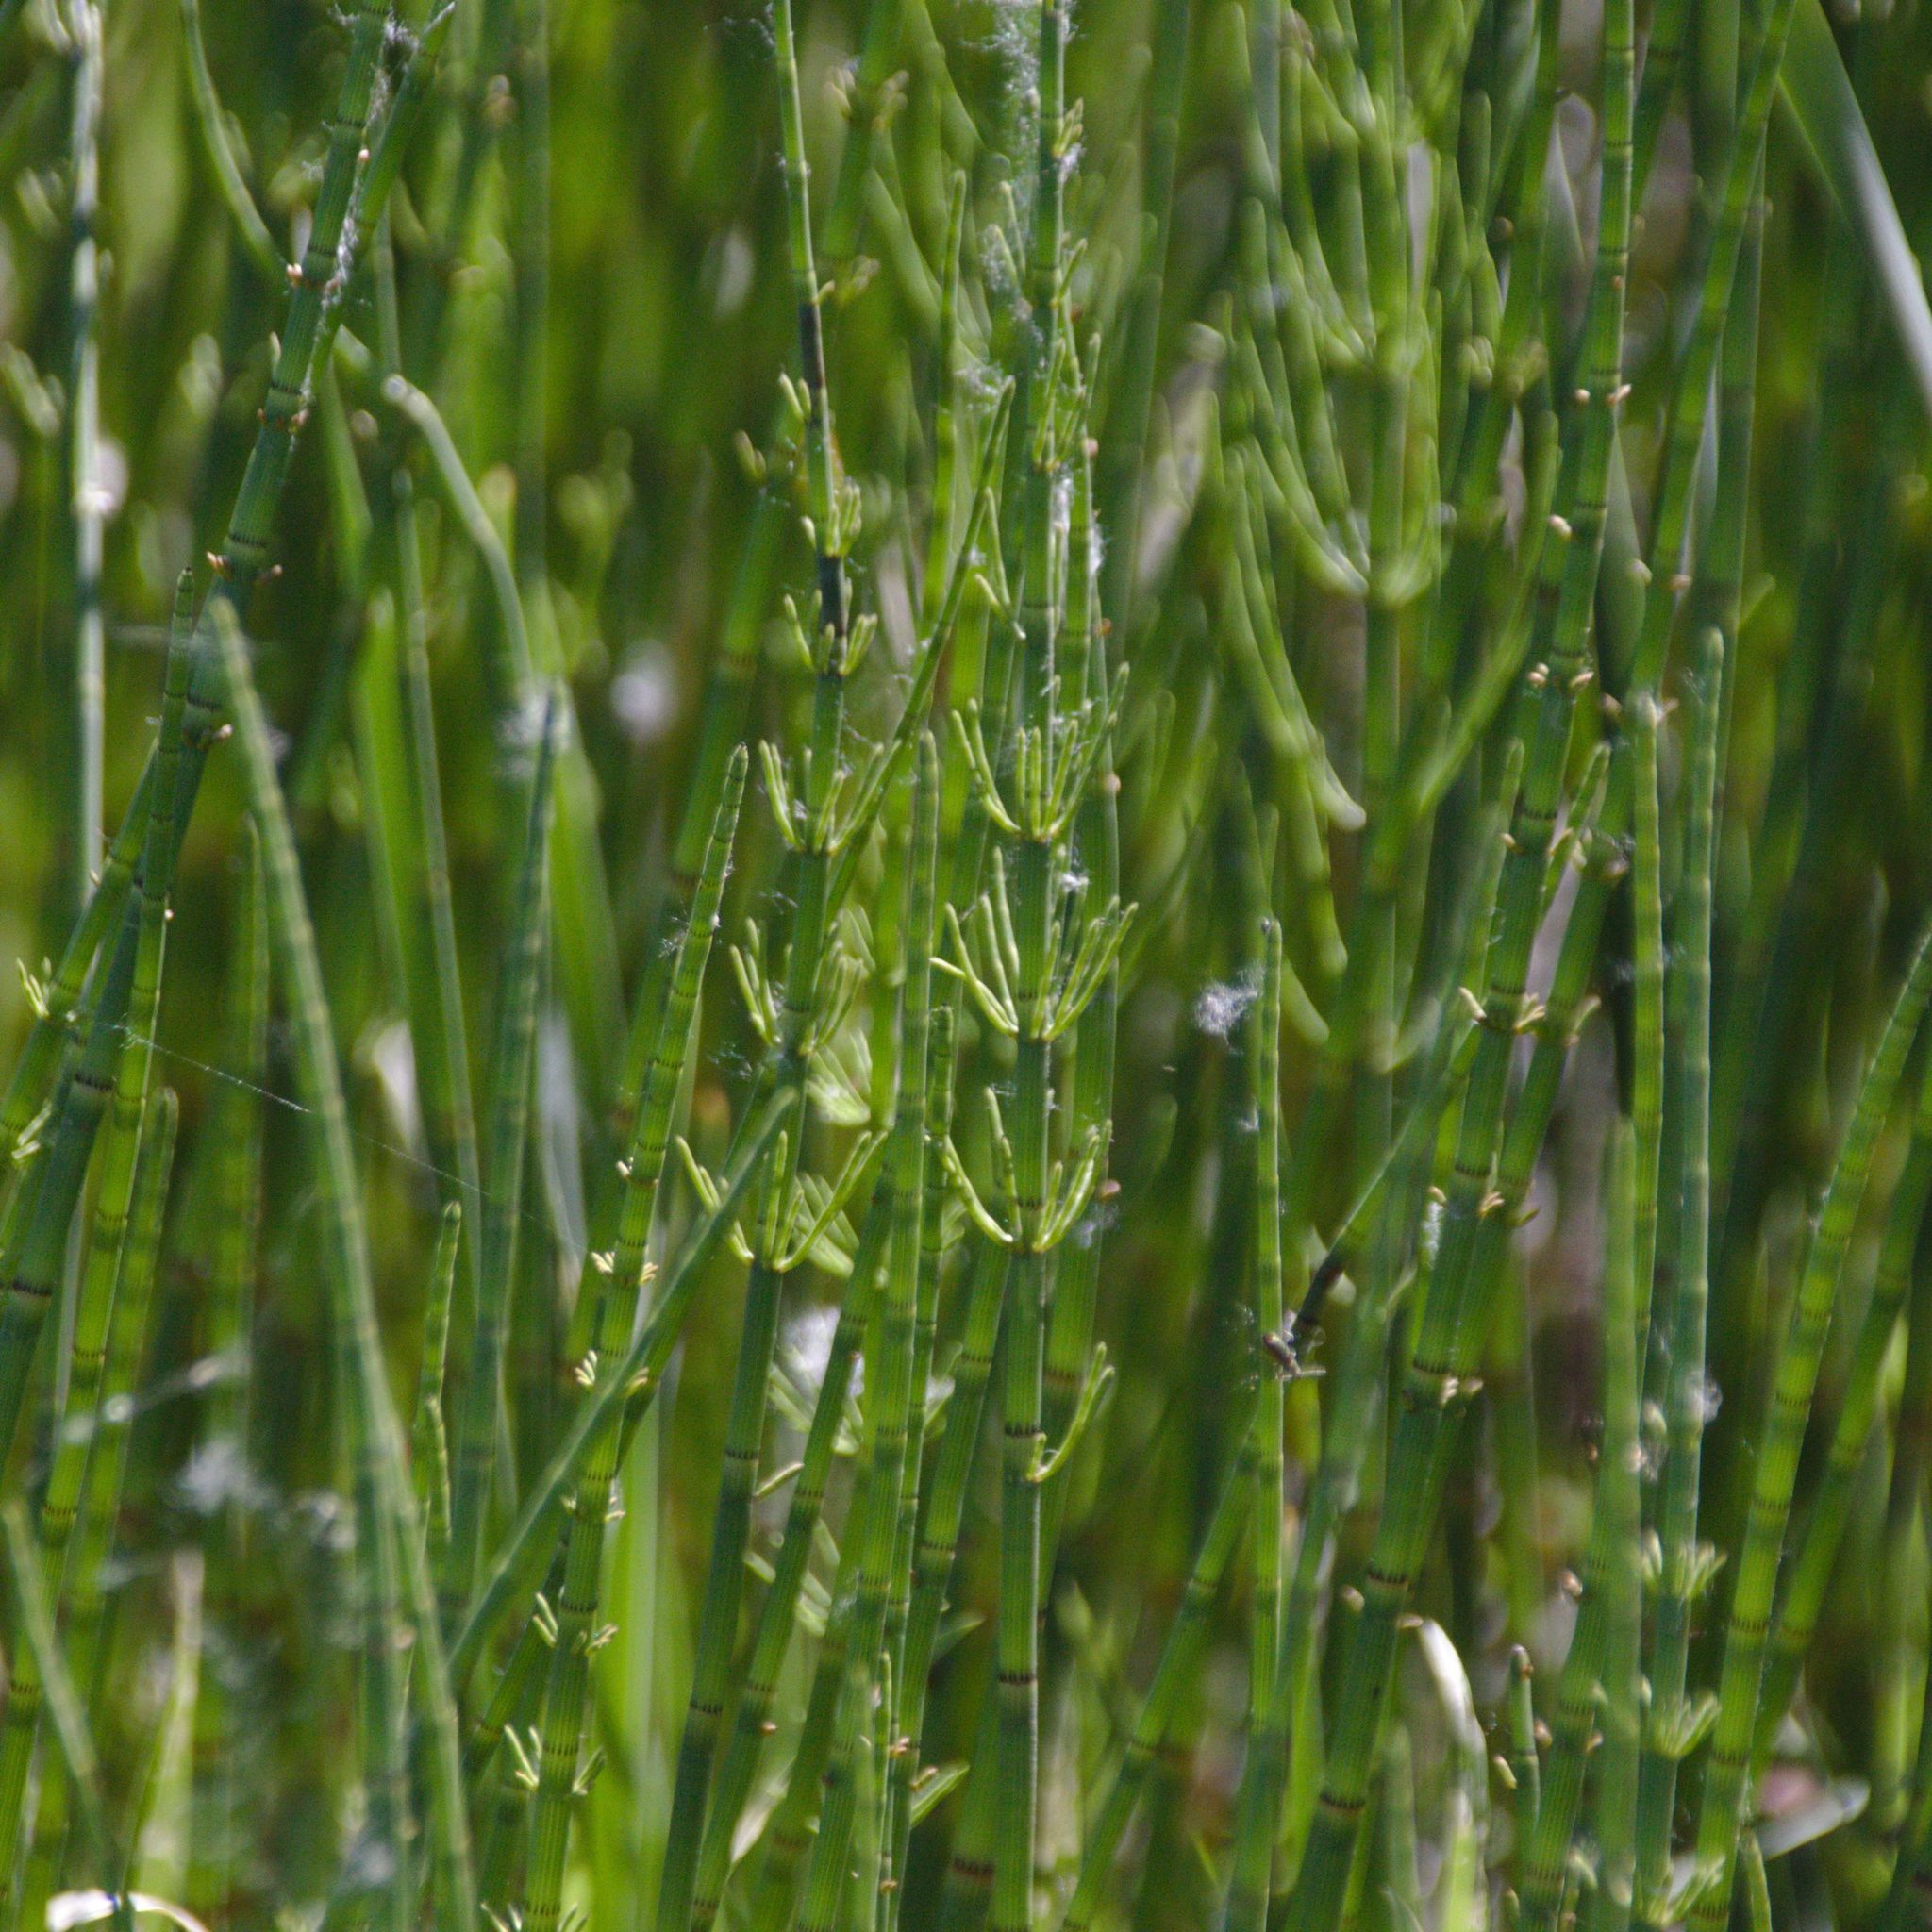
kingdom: Plantae
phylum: Tracheophyta
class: Polypodiopsida
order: Equisetales
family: Equisetaceae
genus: Equisetum
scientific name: Equisetum fluviatile
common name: Water horsetail
